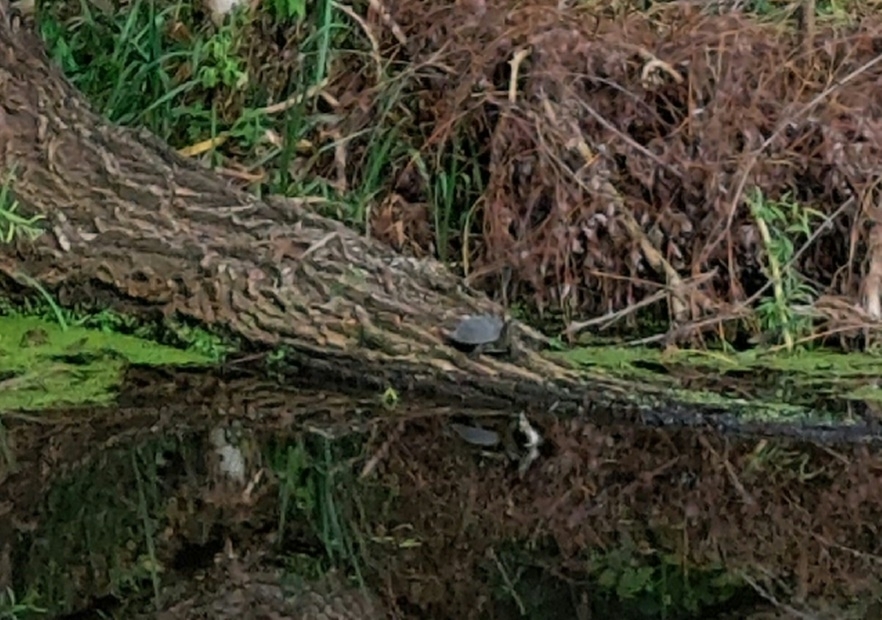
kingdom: Animalia
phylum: Chordata
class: Testudines
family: Emydidae
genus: Emys
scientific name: Emys orbicularis
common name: European pond turtle
